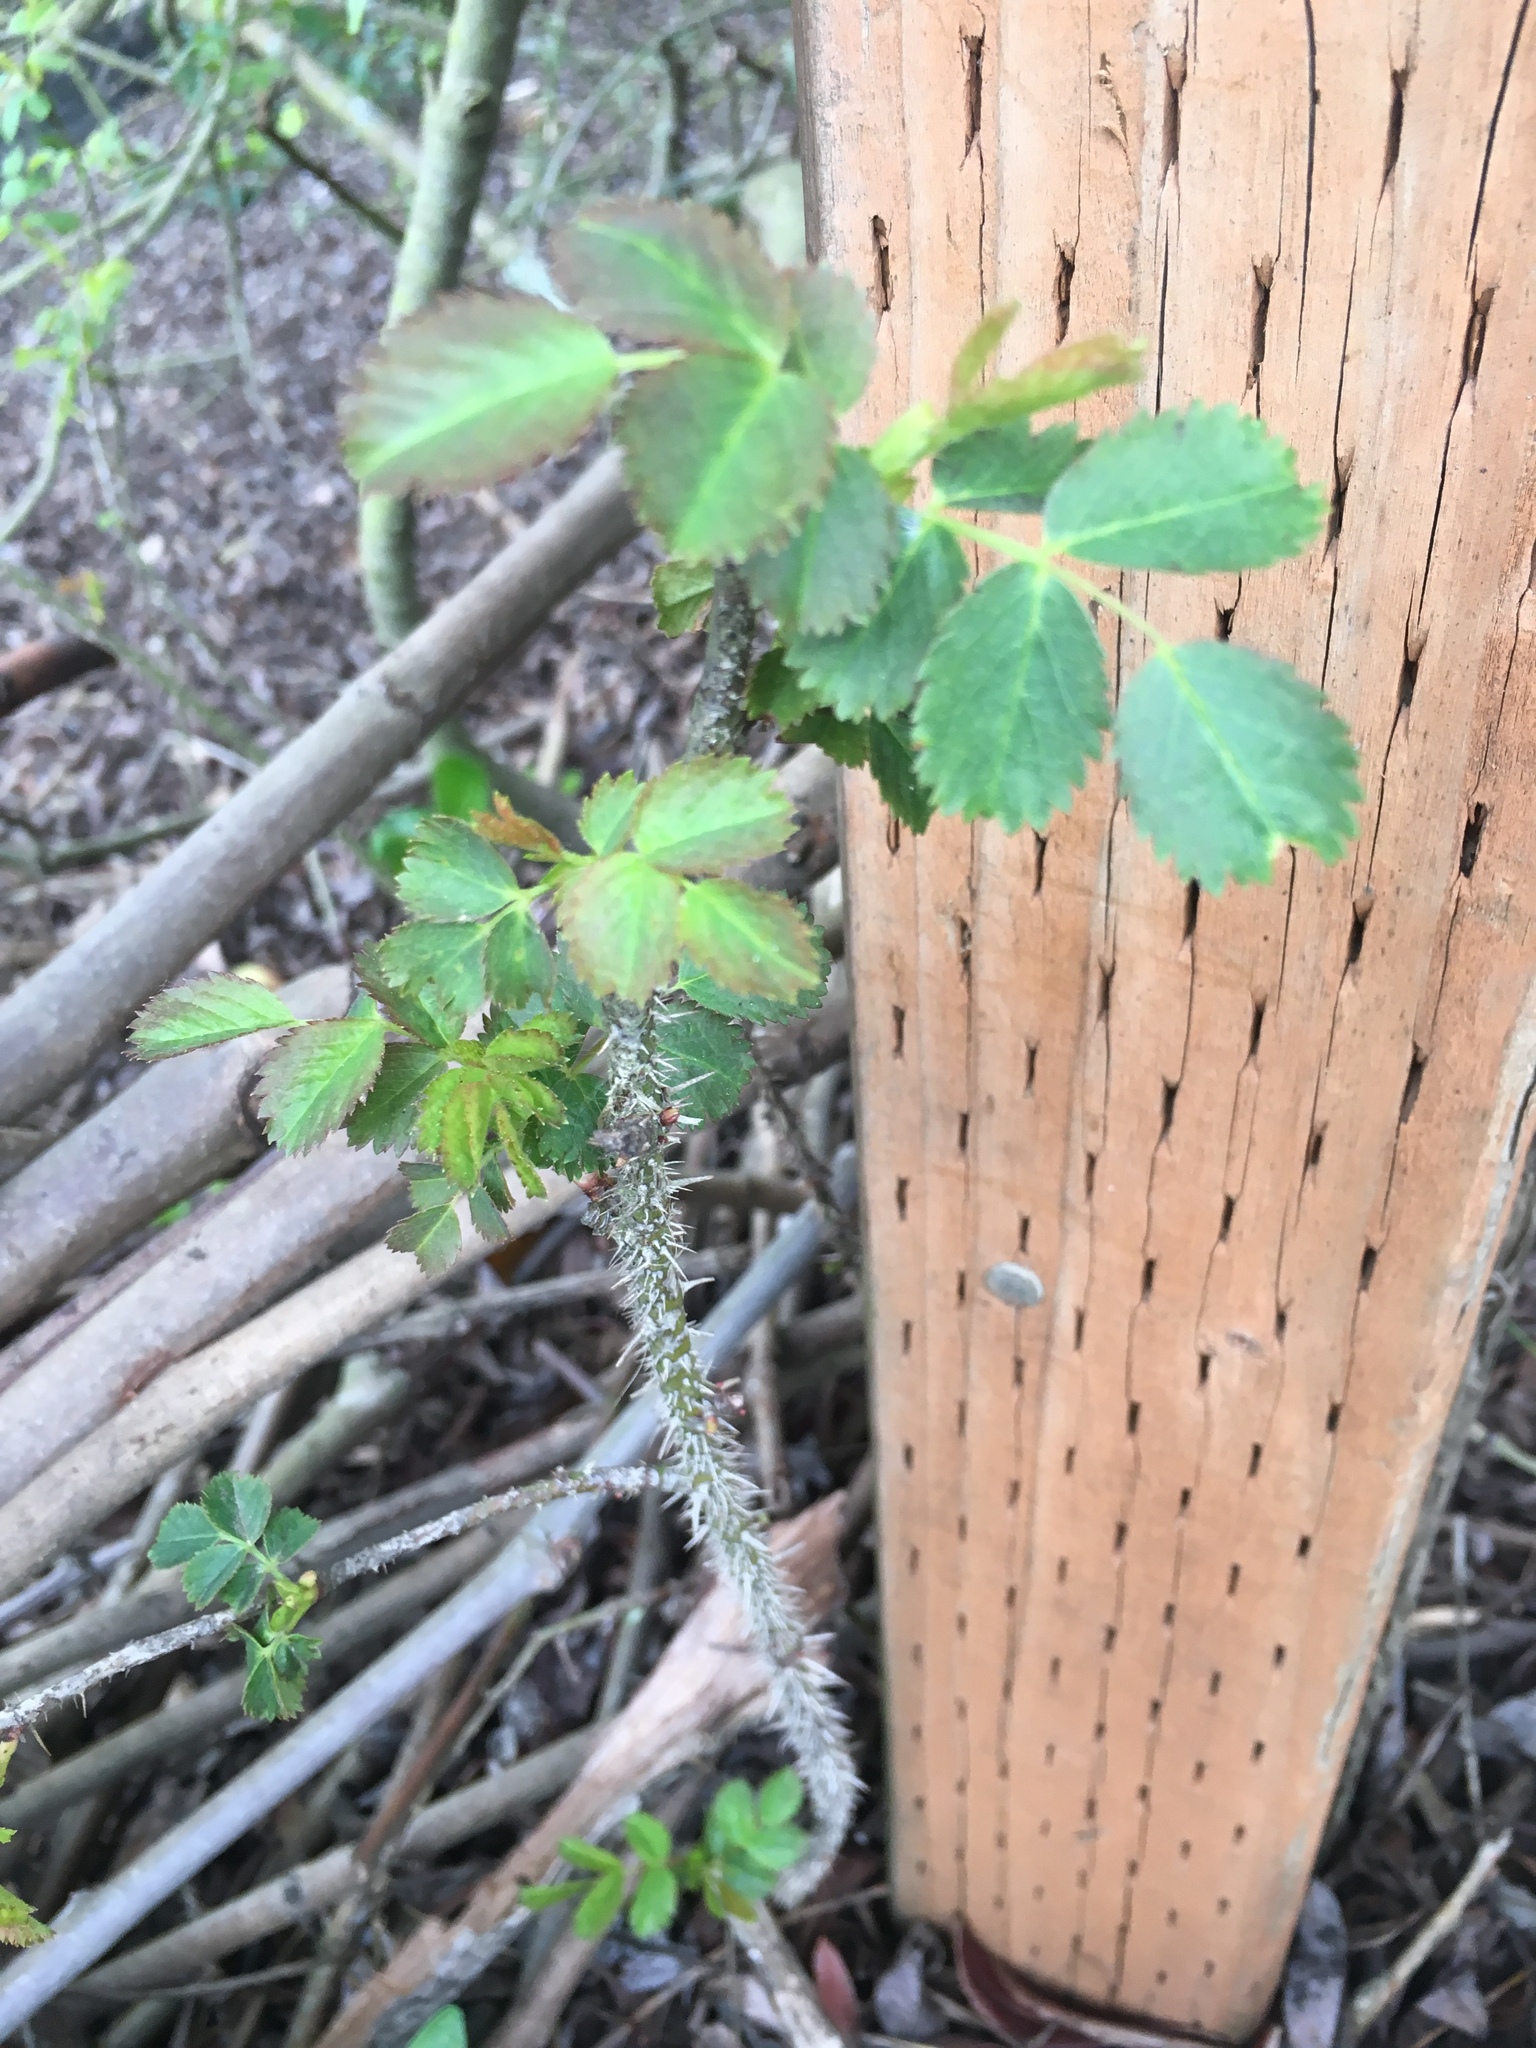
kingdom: Plantae
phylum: Tracheophyta
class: Magnoliopsida
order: Rosales
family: Rosaceae
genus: Rosa
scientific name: Rosa californica
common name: California rose
